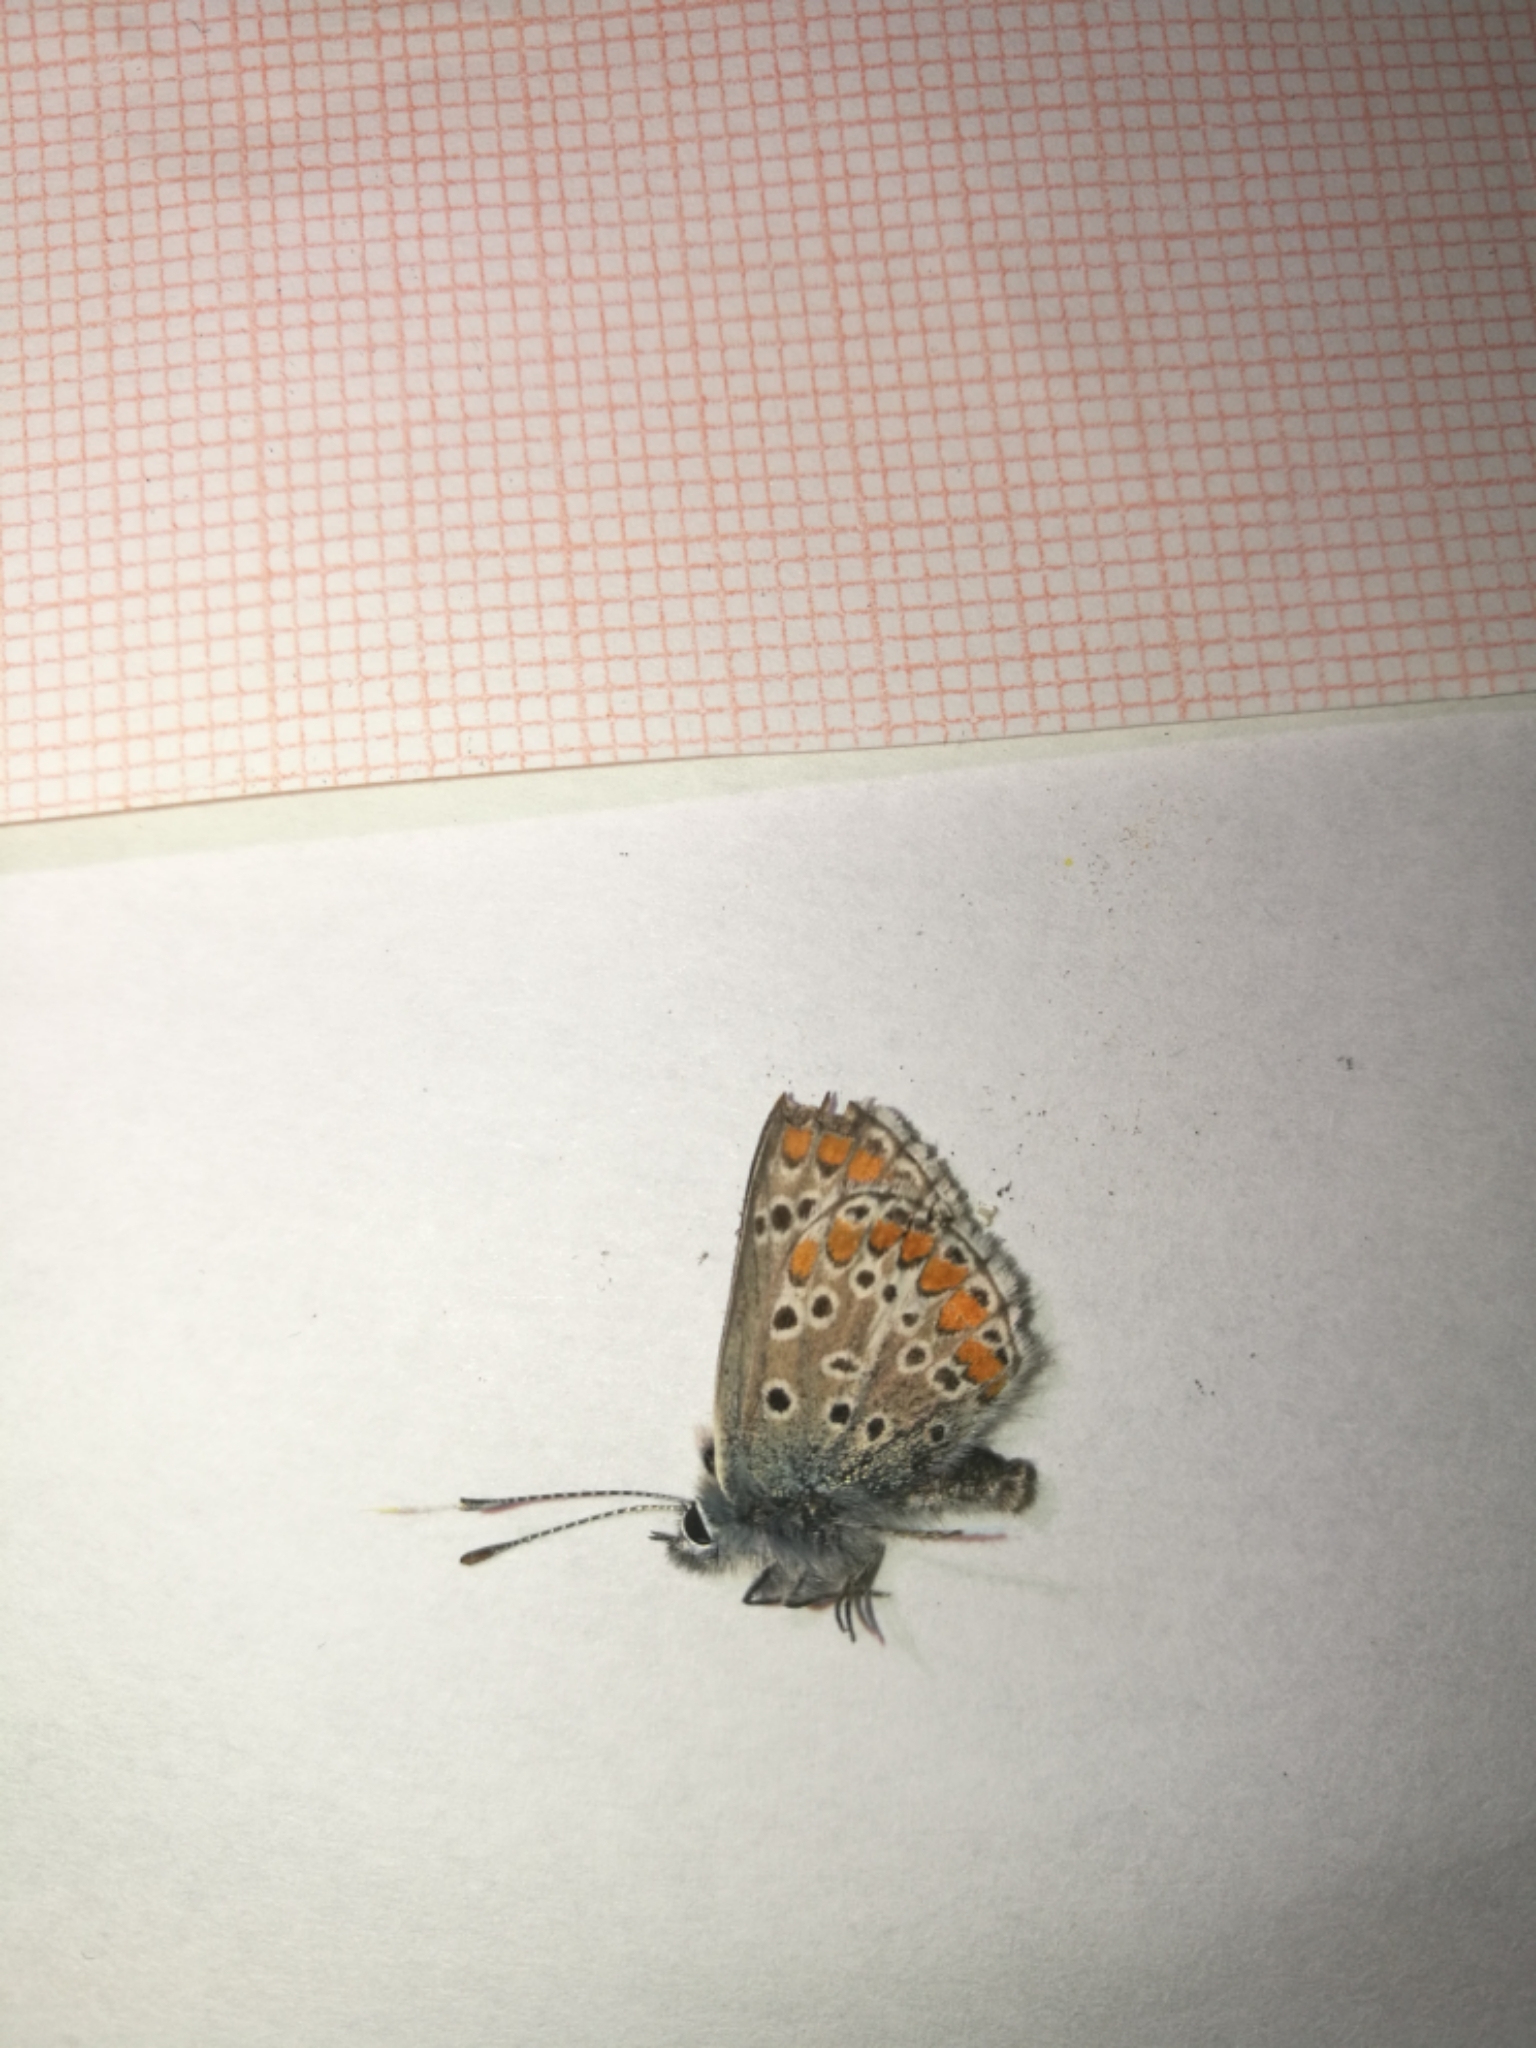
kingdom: Animalia
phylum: Arthropoda
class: Insecta
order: Lepidoptera
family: Lycaenidae
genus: Aricia
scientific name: Aricia agestis
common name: Brown argus
